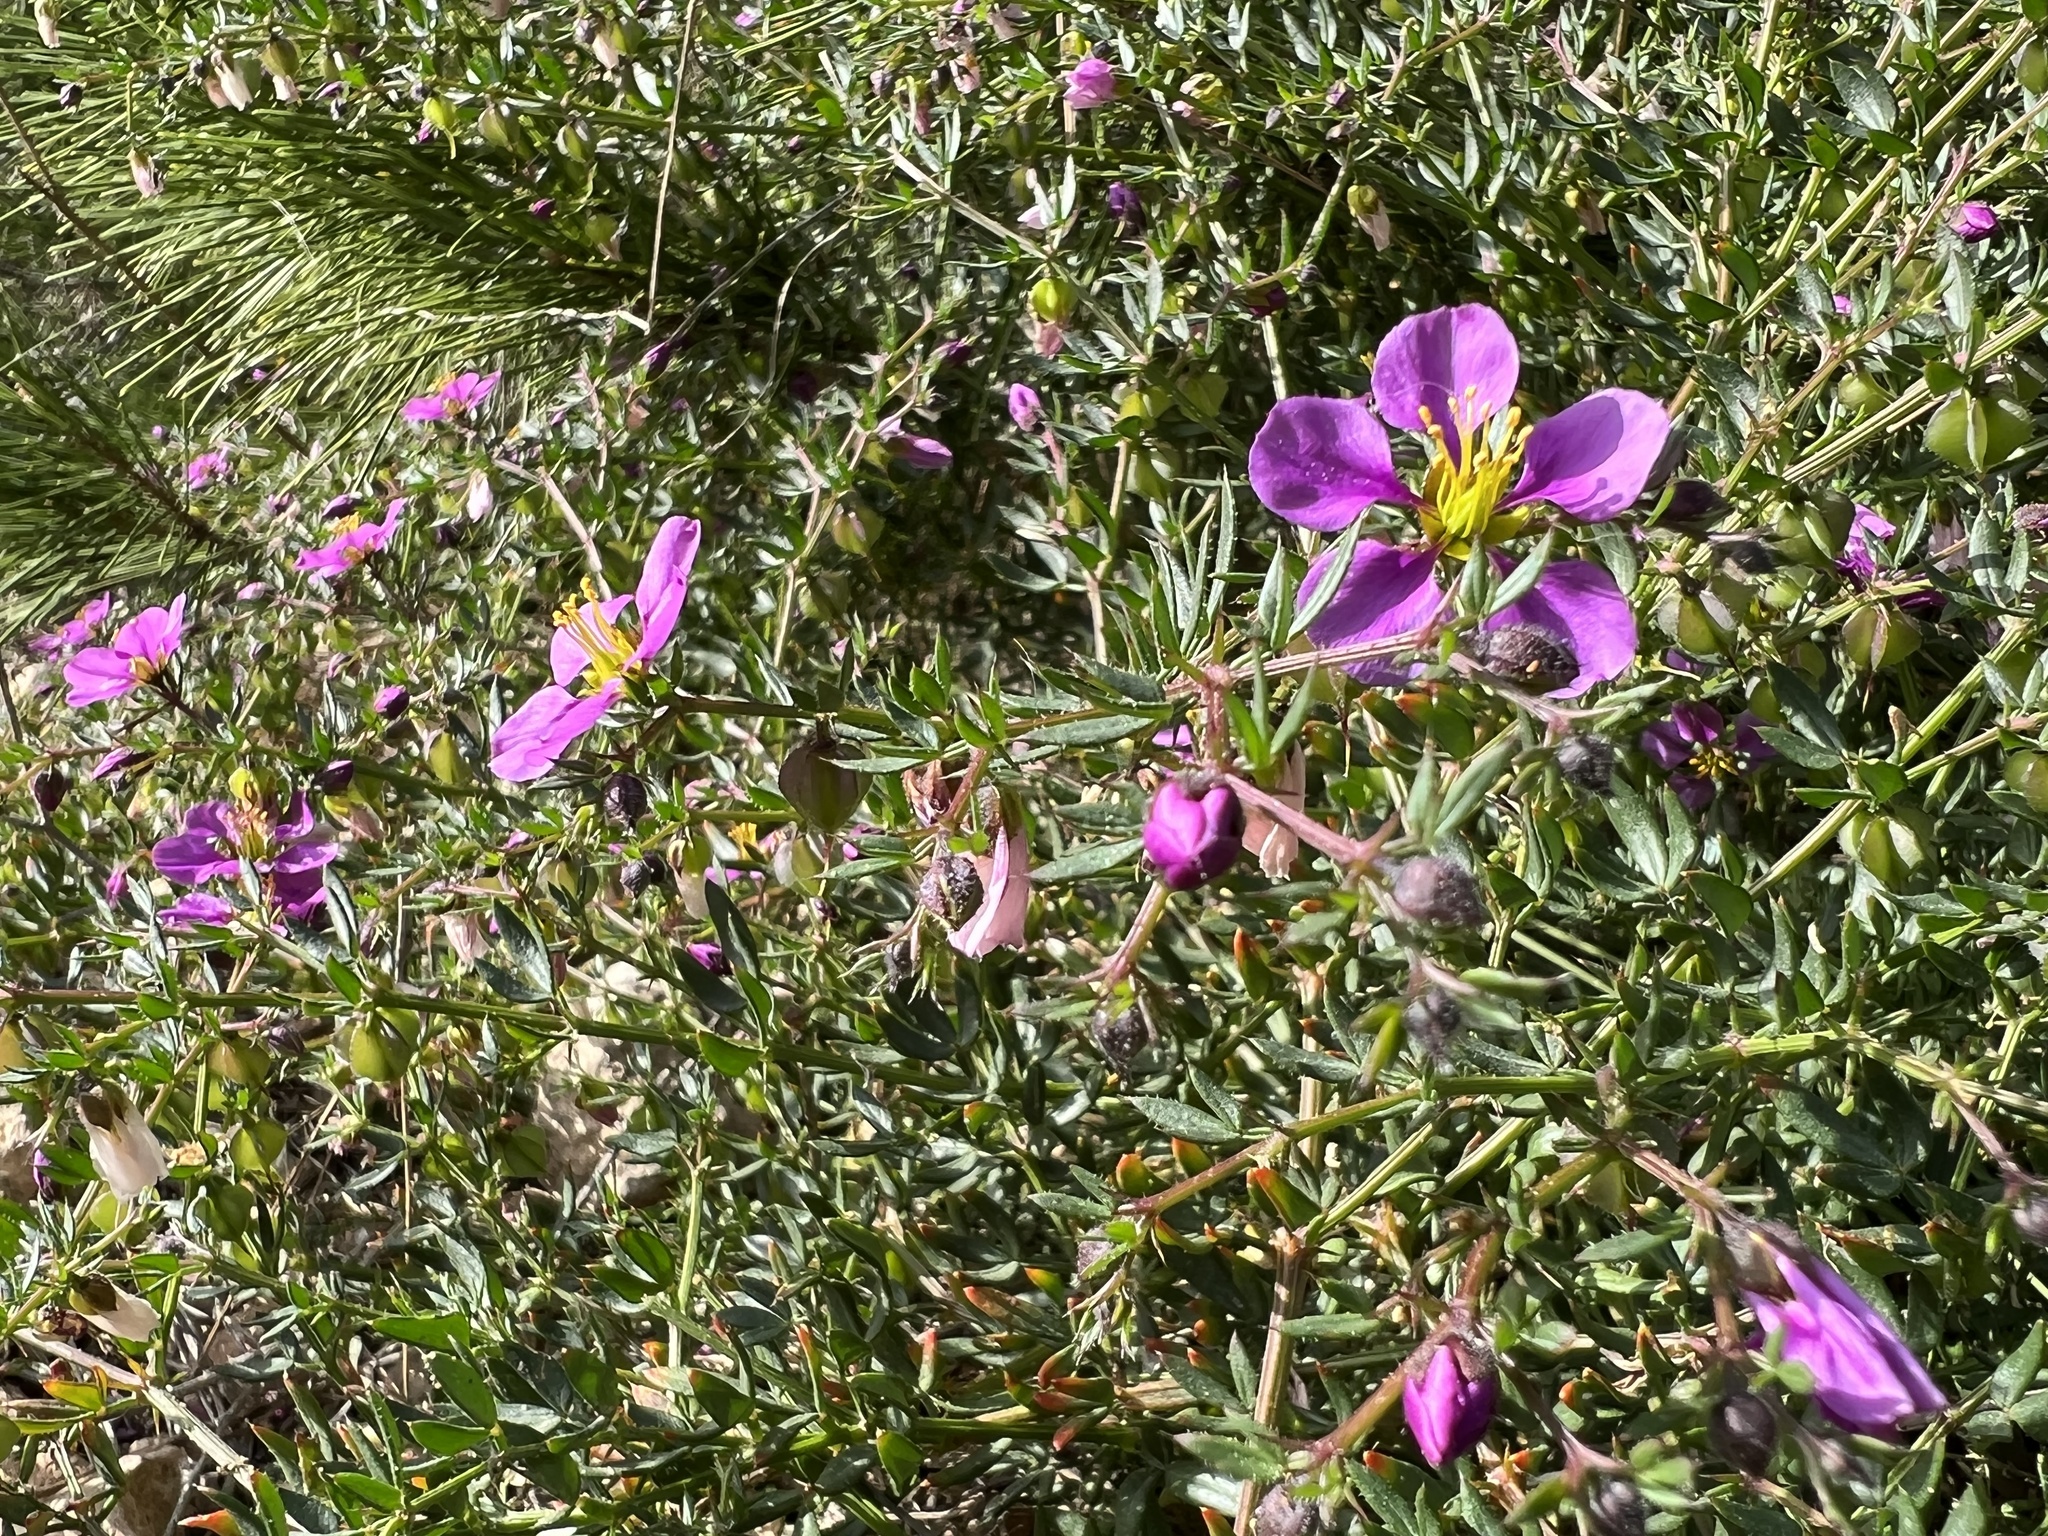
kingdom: Plantae
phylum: Tracheophyta
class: Magnoliopsida
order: Zygophyllales
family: Zygophyllaceae
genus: Fagonia
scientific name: Fagonia cretica
